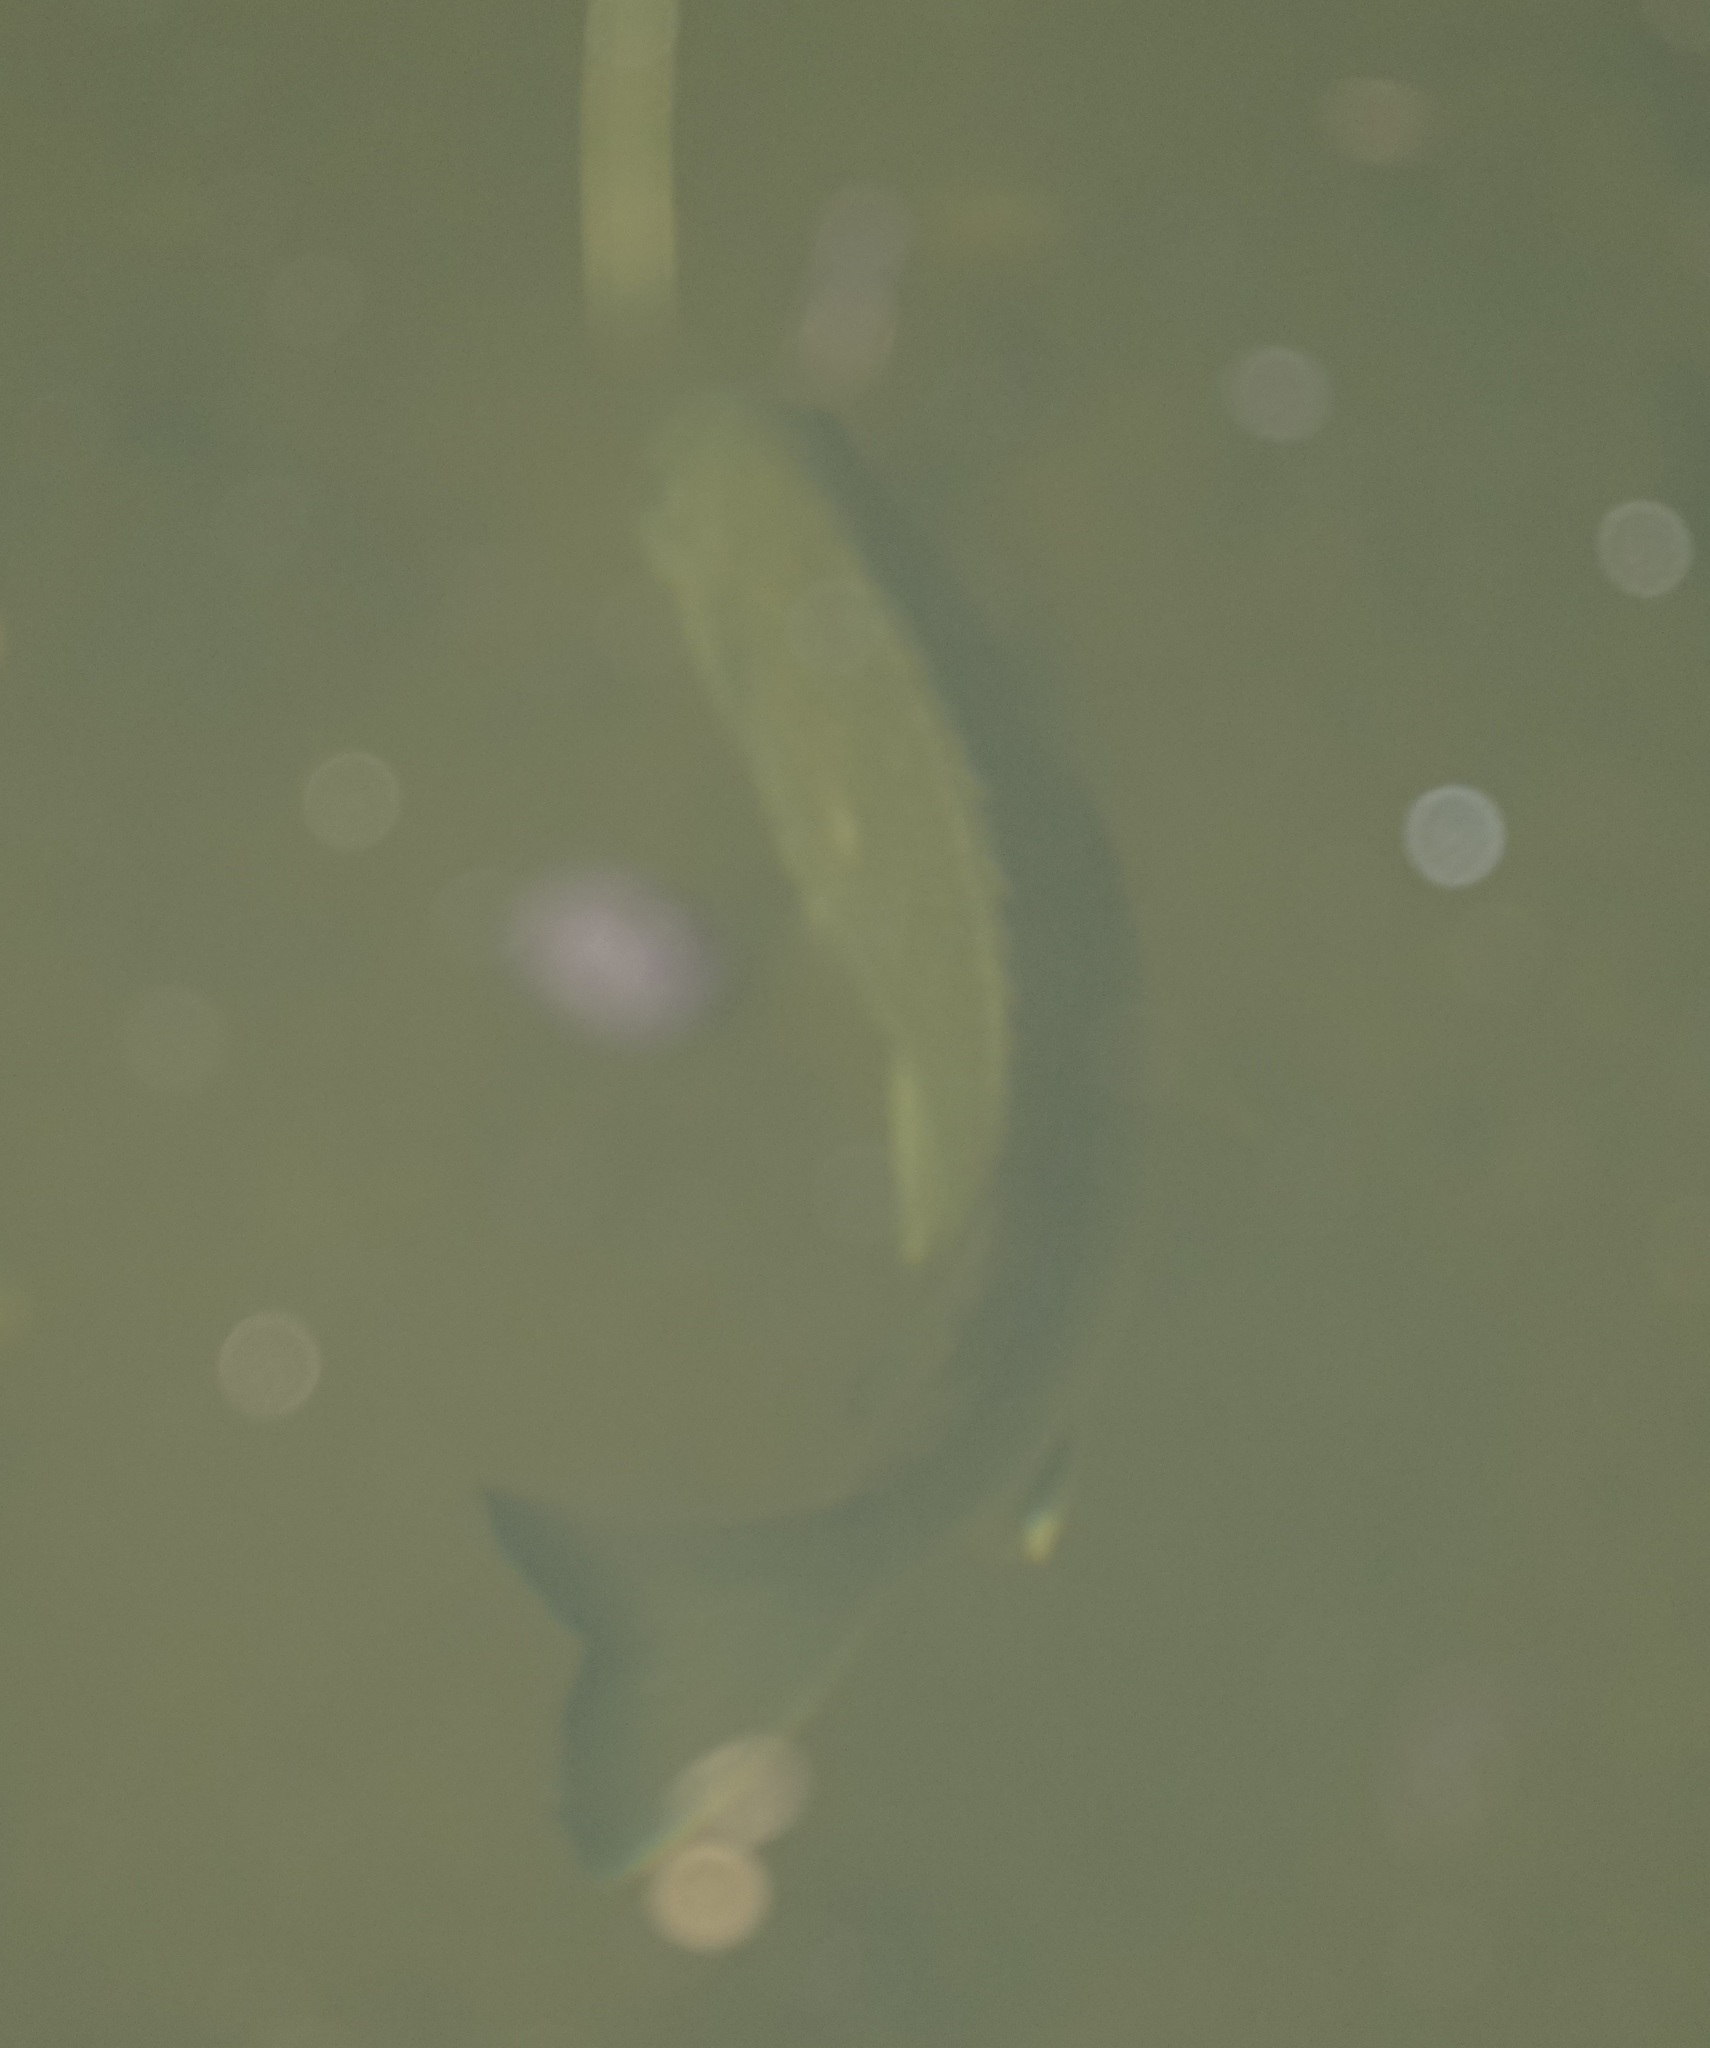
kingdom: Animalia
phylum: Chordata
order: Perciformes
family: Sparidae
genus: Acanthopagrus
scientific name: Acanthopagrus australis
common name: Surf bream
